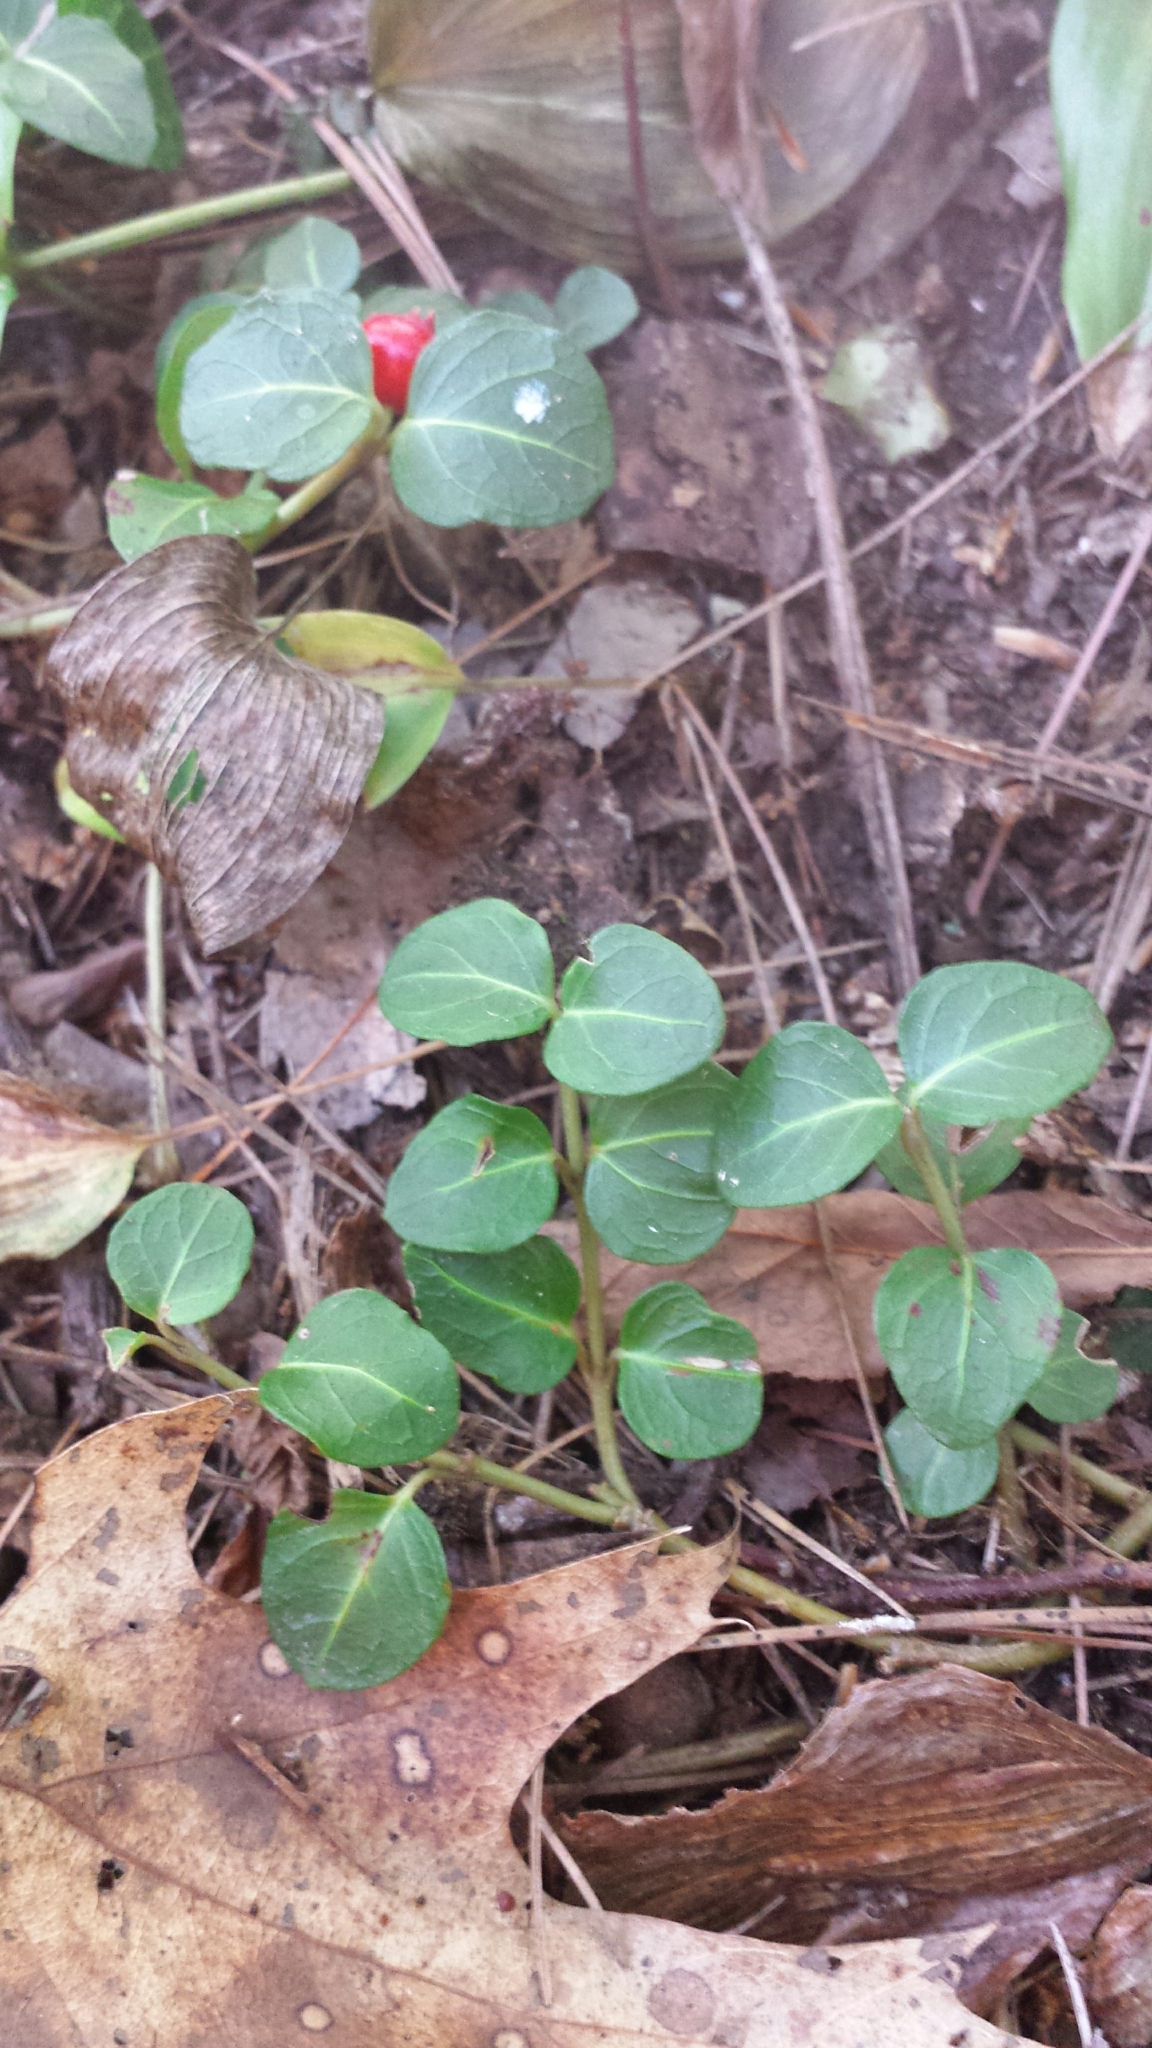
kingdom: Plantae
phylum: Tracheophyta
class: Magnoliopsida
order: Gentianales
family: Rubiaceae
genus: Mitchella
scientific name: Mitchella repens
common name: Partridge-berry
